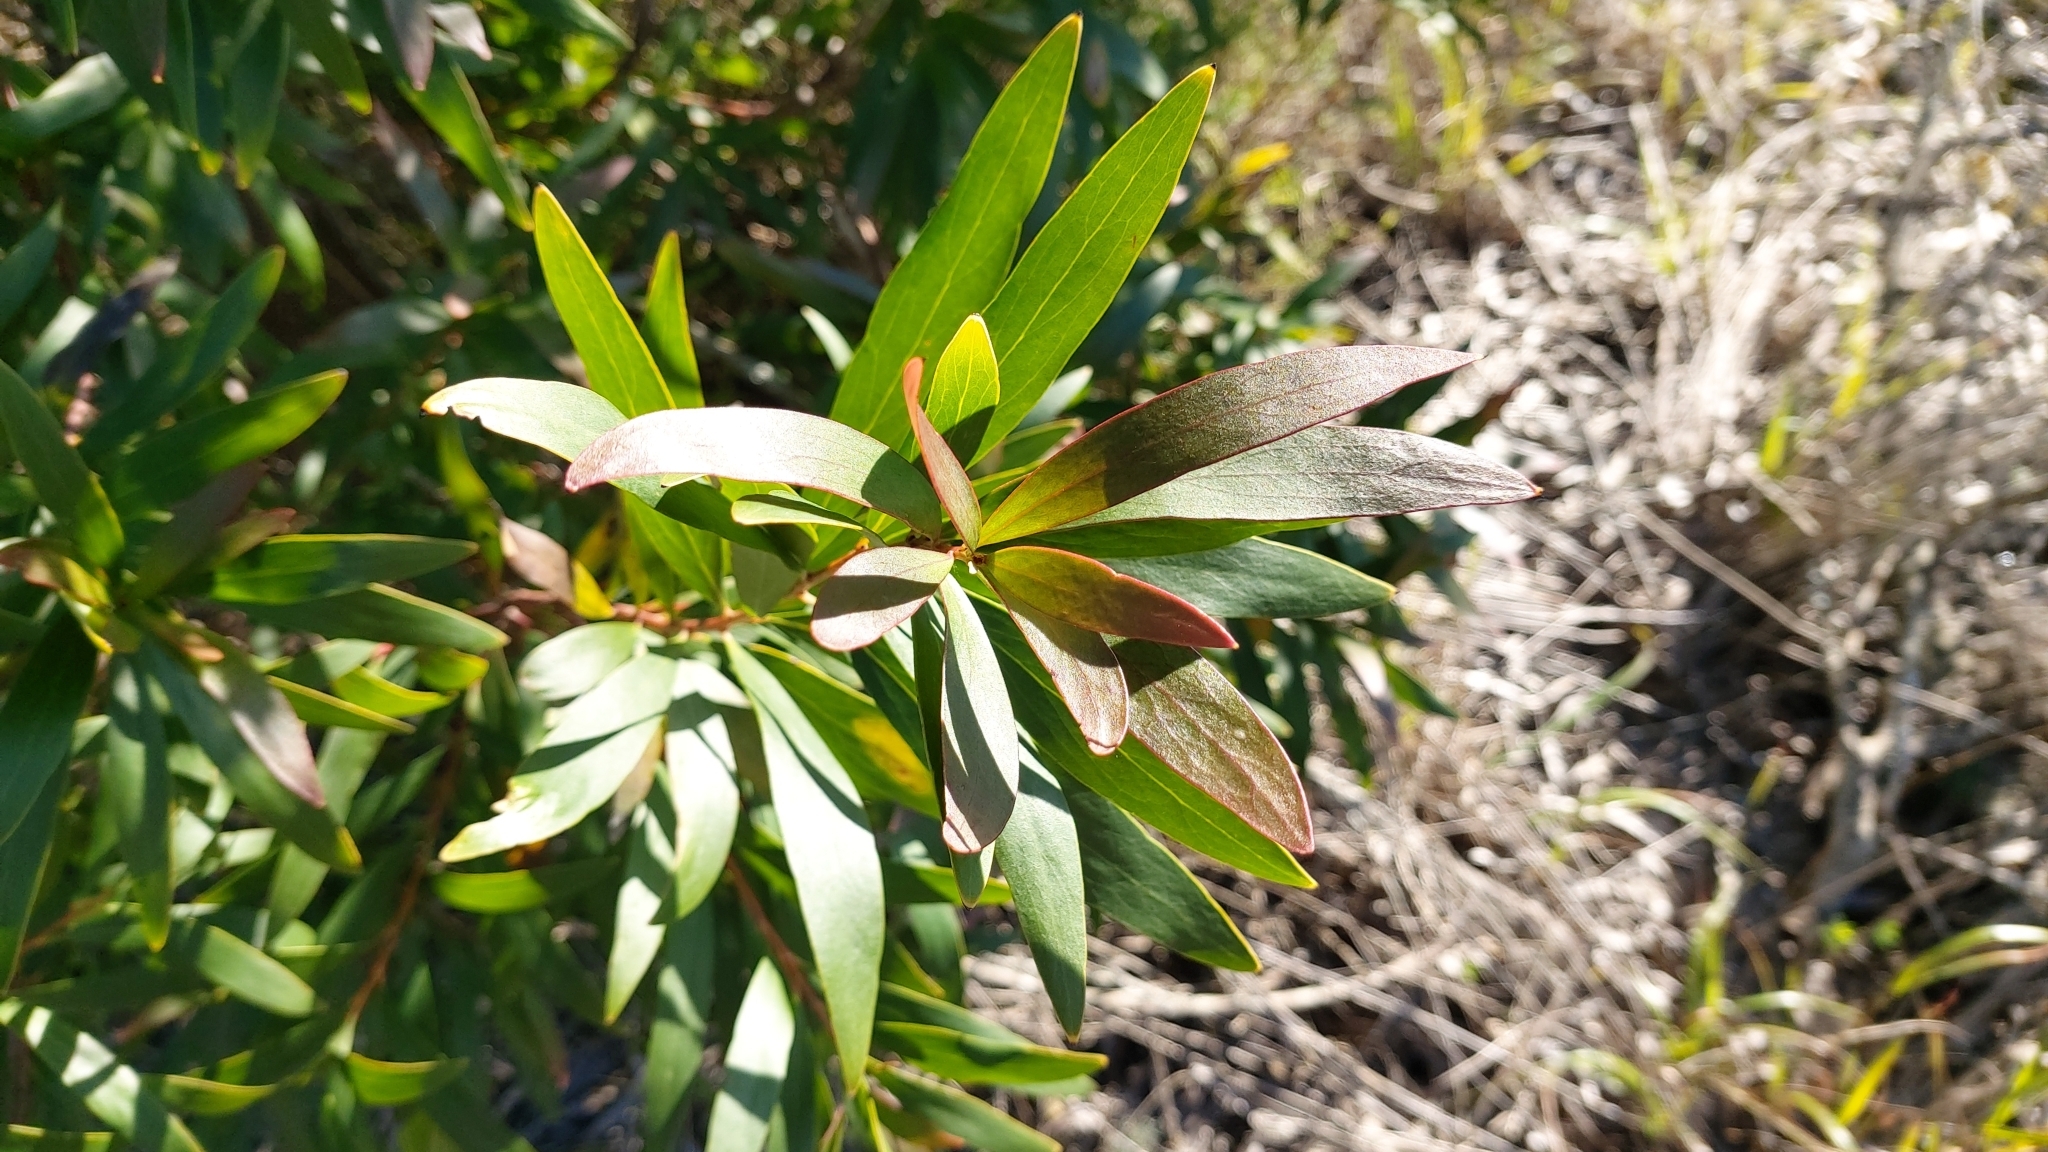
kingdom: Plantae
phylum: Tracheophyta
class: Magnoliopsida
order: Proteales
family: Proteaceae
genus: Hakea
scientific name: Hakea salicifolia
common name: Willow hakea
